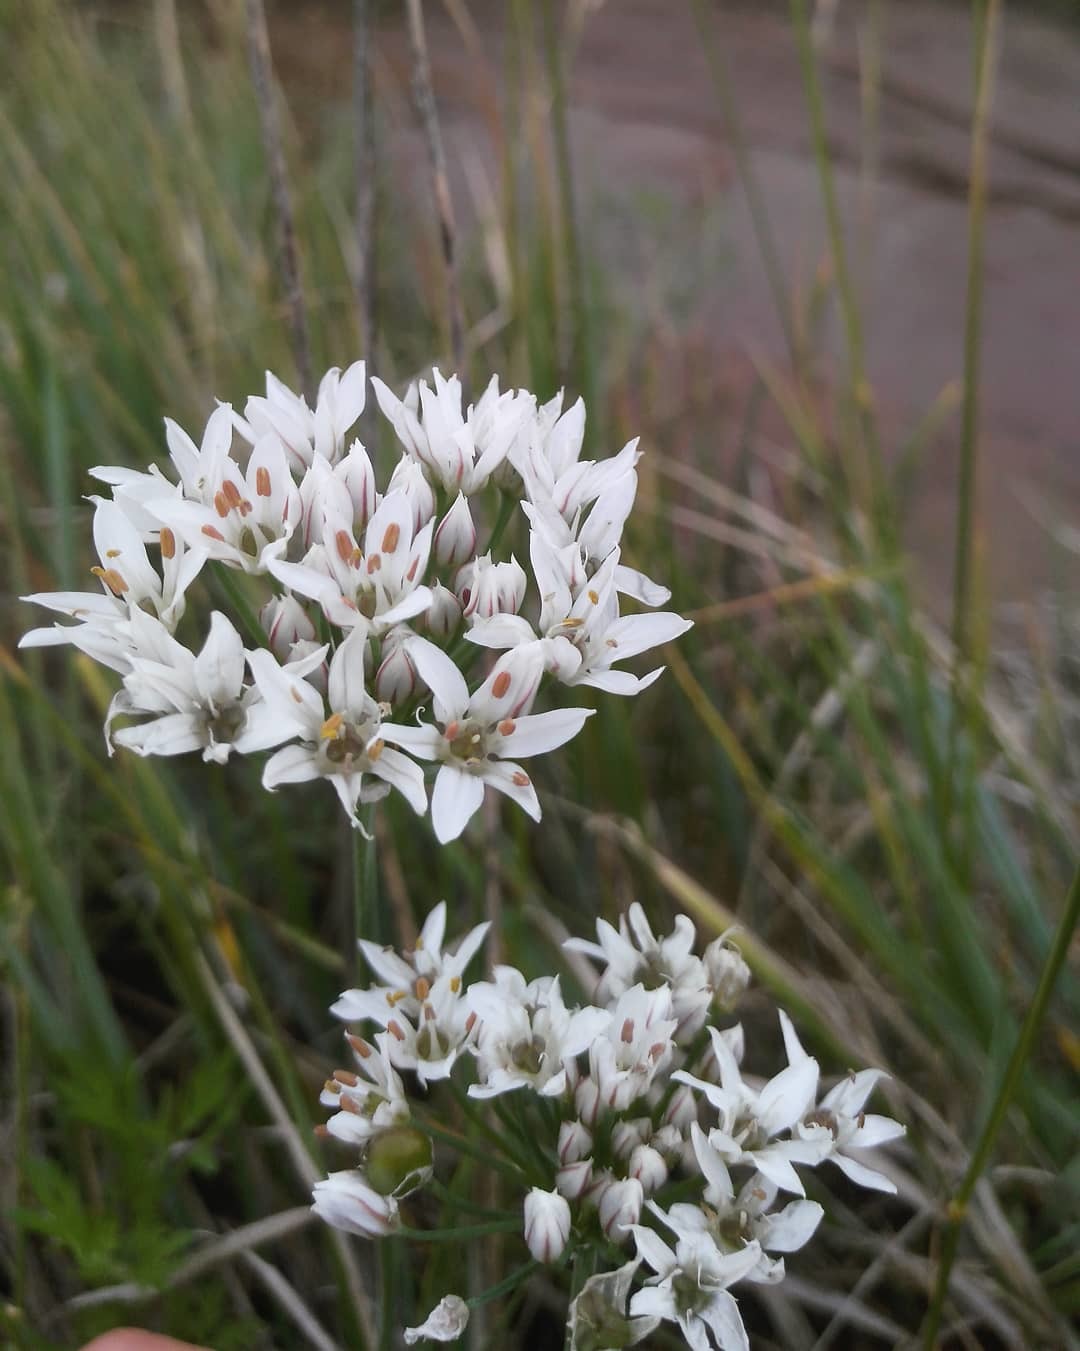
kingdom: Plantae
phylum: Tracheophyta
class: Liliopsida
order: Asparagales
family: Amaryllidaceae
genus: Allium
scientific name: Allium ramosum
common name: Fragrant garlic
